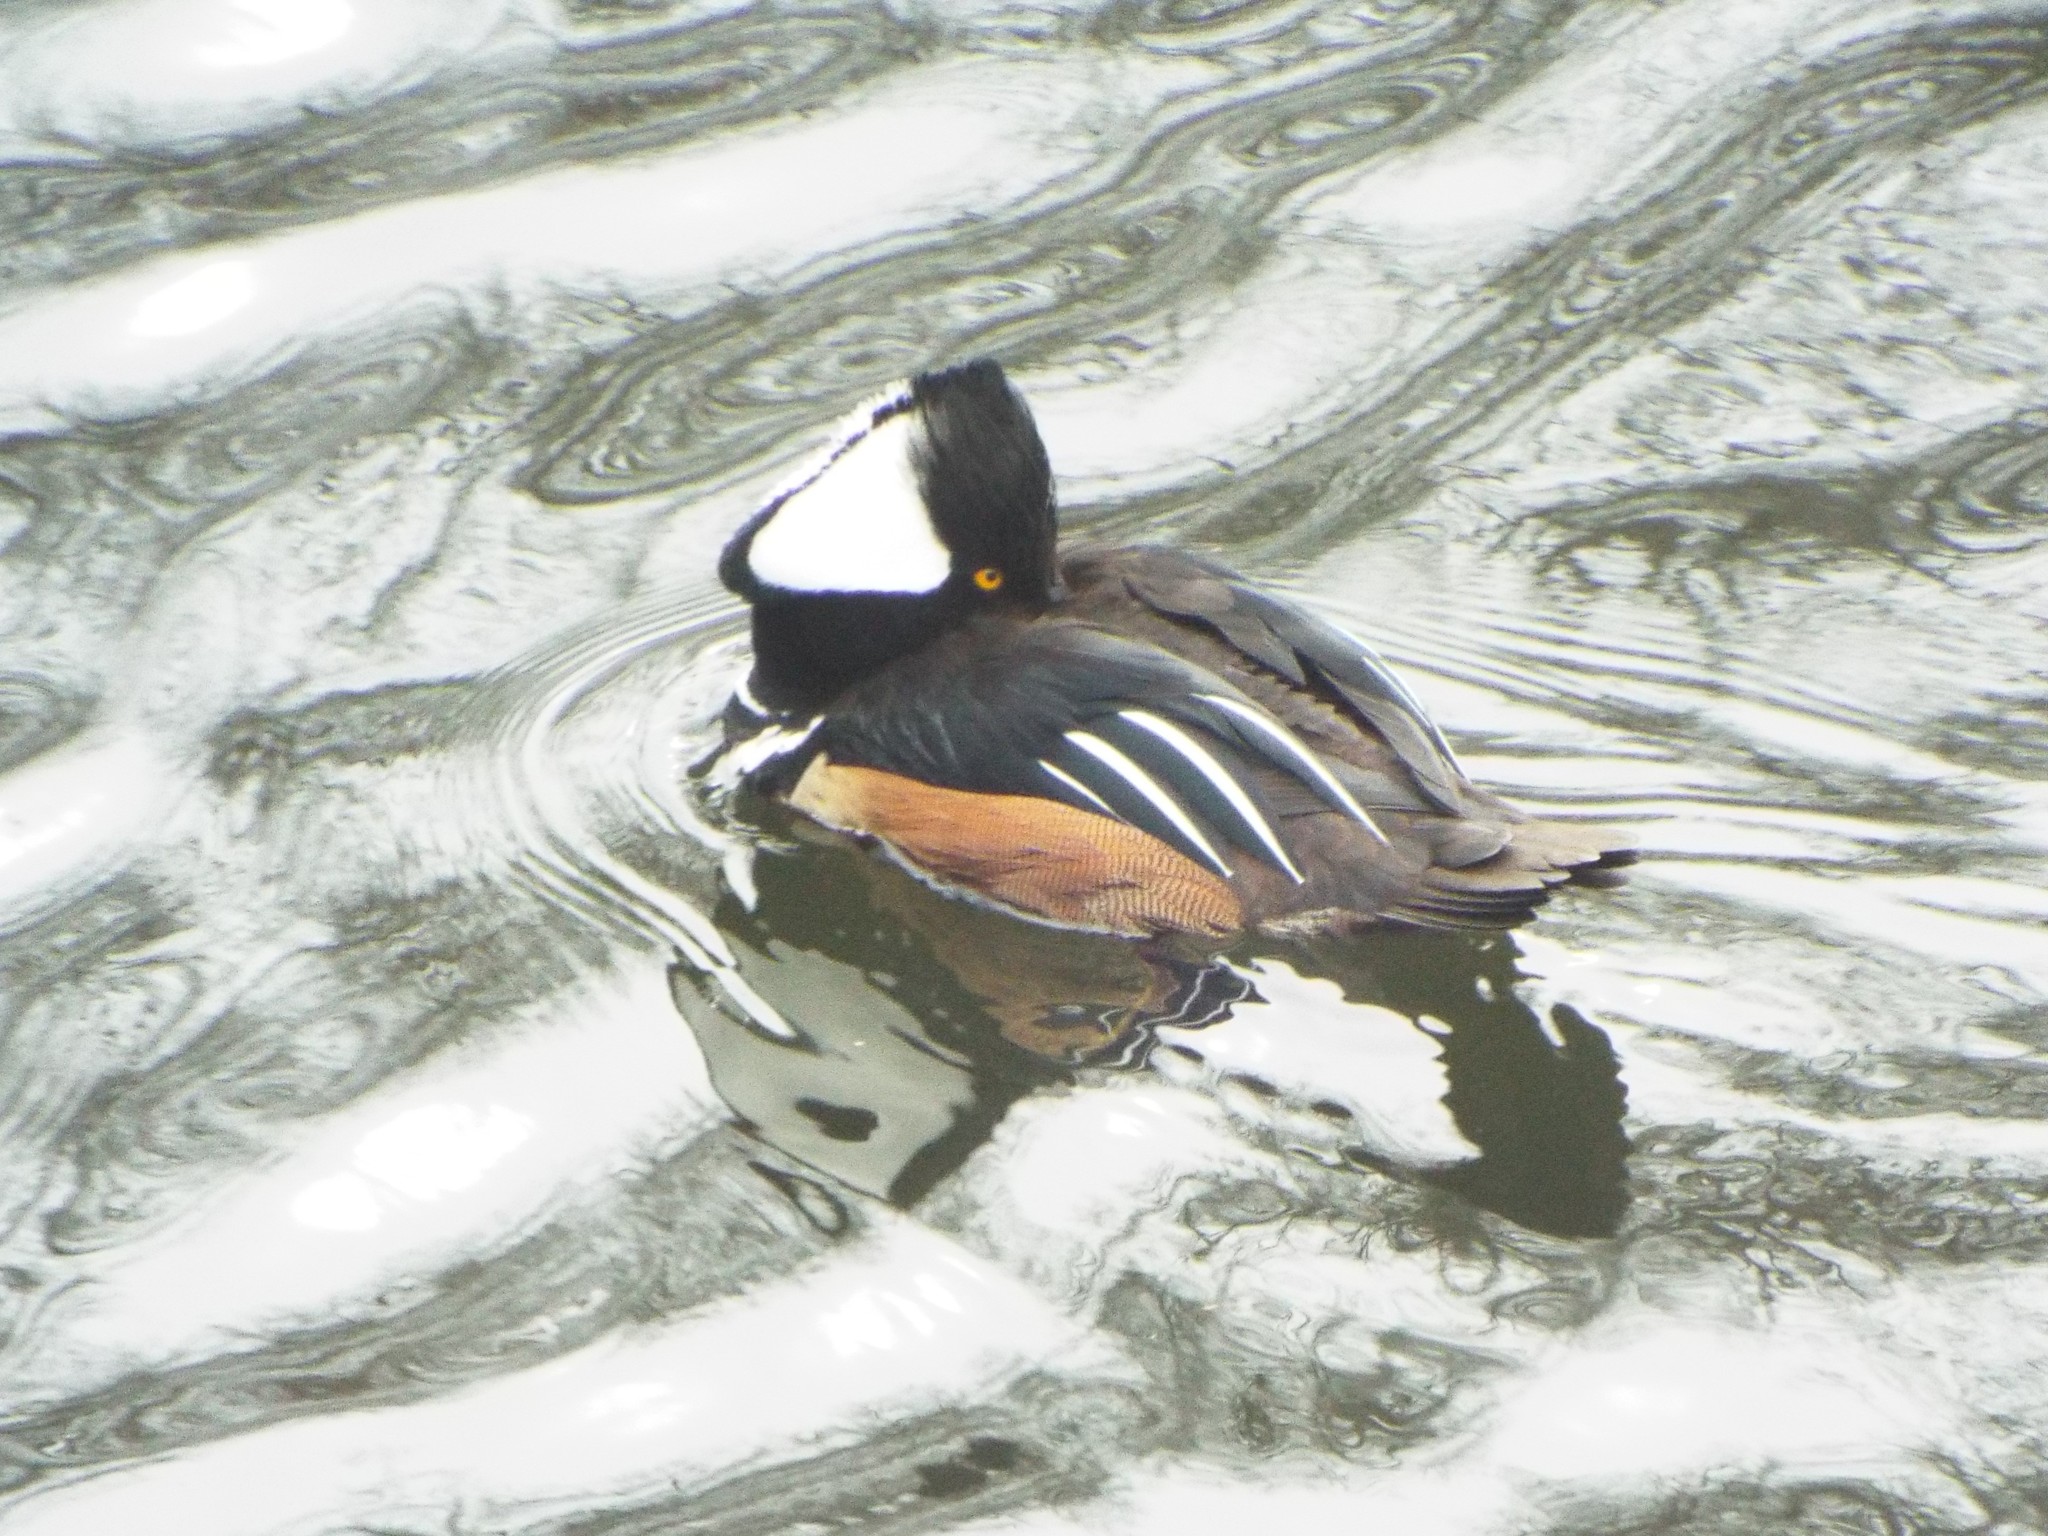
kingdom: Animalia
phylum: Chordata
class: Aves
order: Anseriformes
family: Anatidae
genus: Lophodytes
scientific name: Lophodytes cucullatus
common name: Hooded merganser
